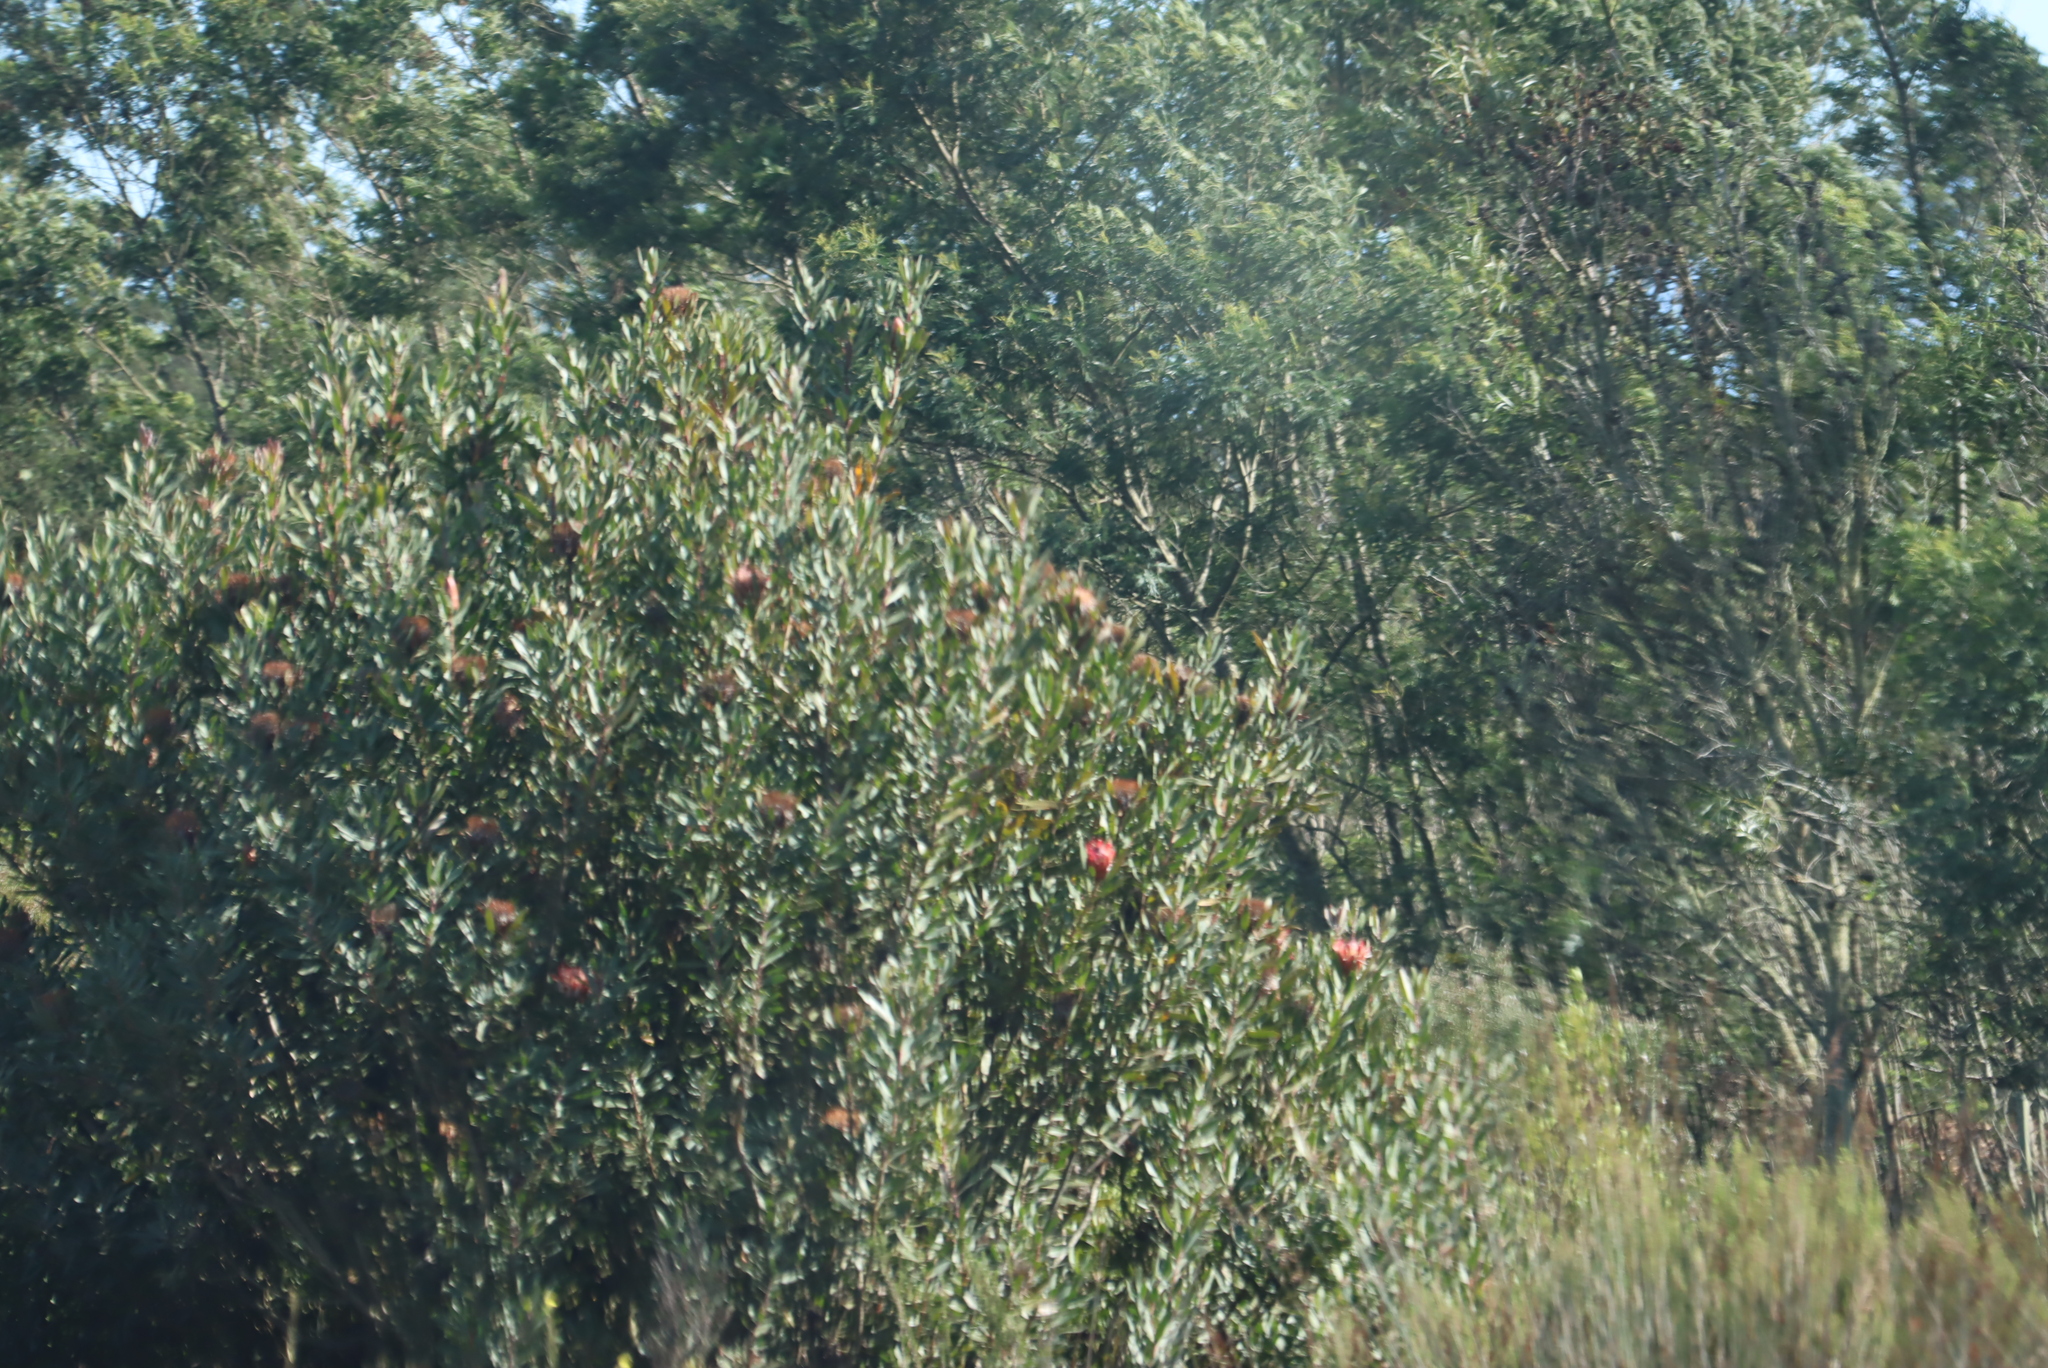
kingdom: Plantae
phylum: Tracheophyta
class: Magnoliopsida
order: Proteales
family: Proteaceae
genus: Protea
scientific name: Protea susannae
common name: Foetid-leaf sugarbush
